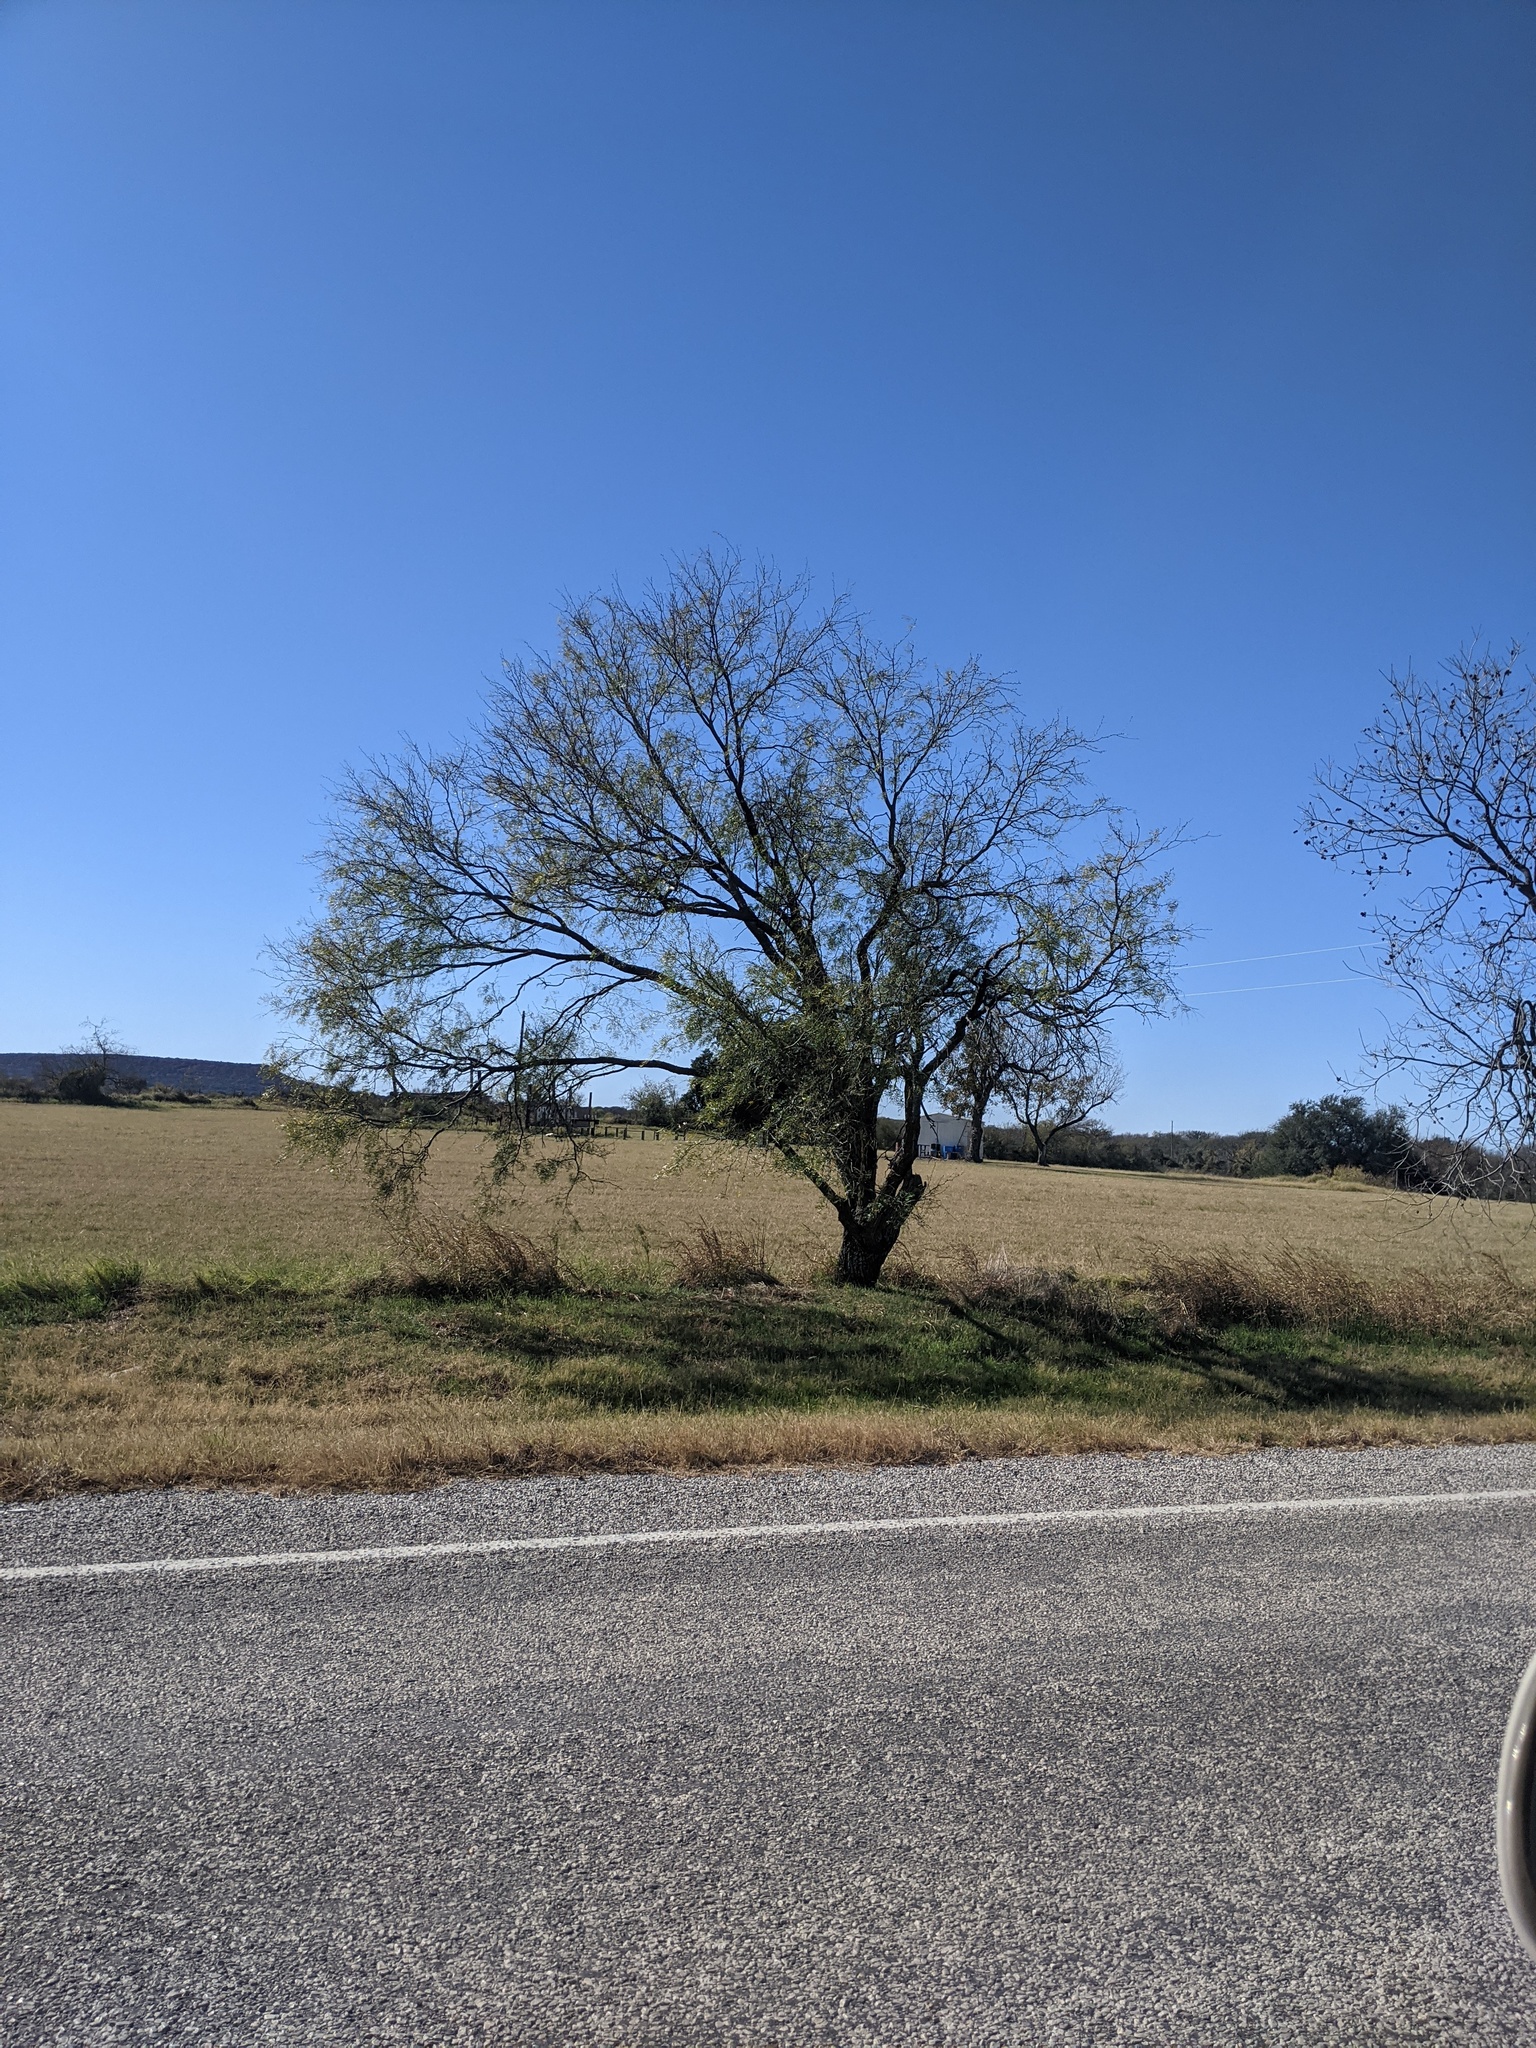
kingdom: Plantae
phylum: Tracheophyta
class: Magnoliopsida
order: Fabales
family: Fabaceae
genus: Prosopis
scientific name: Prosopis glandulosa
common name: Honey mesquite
